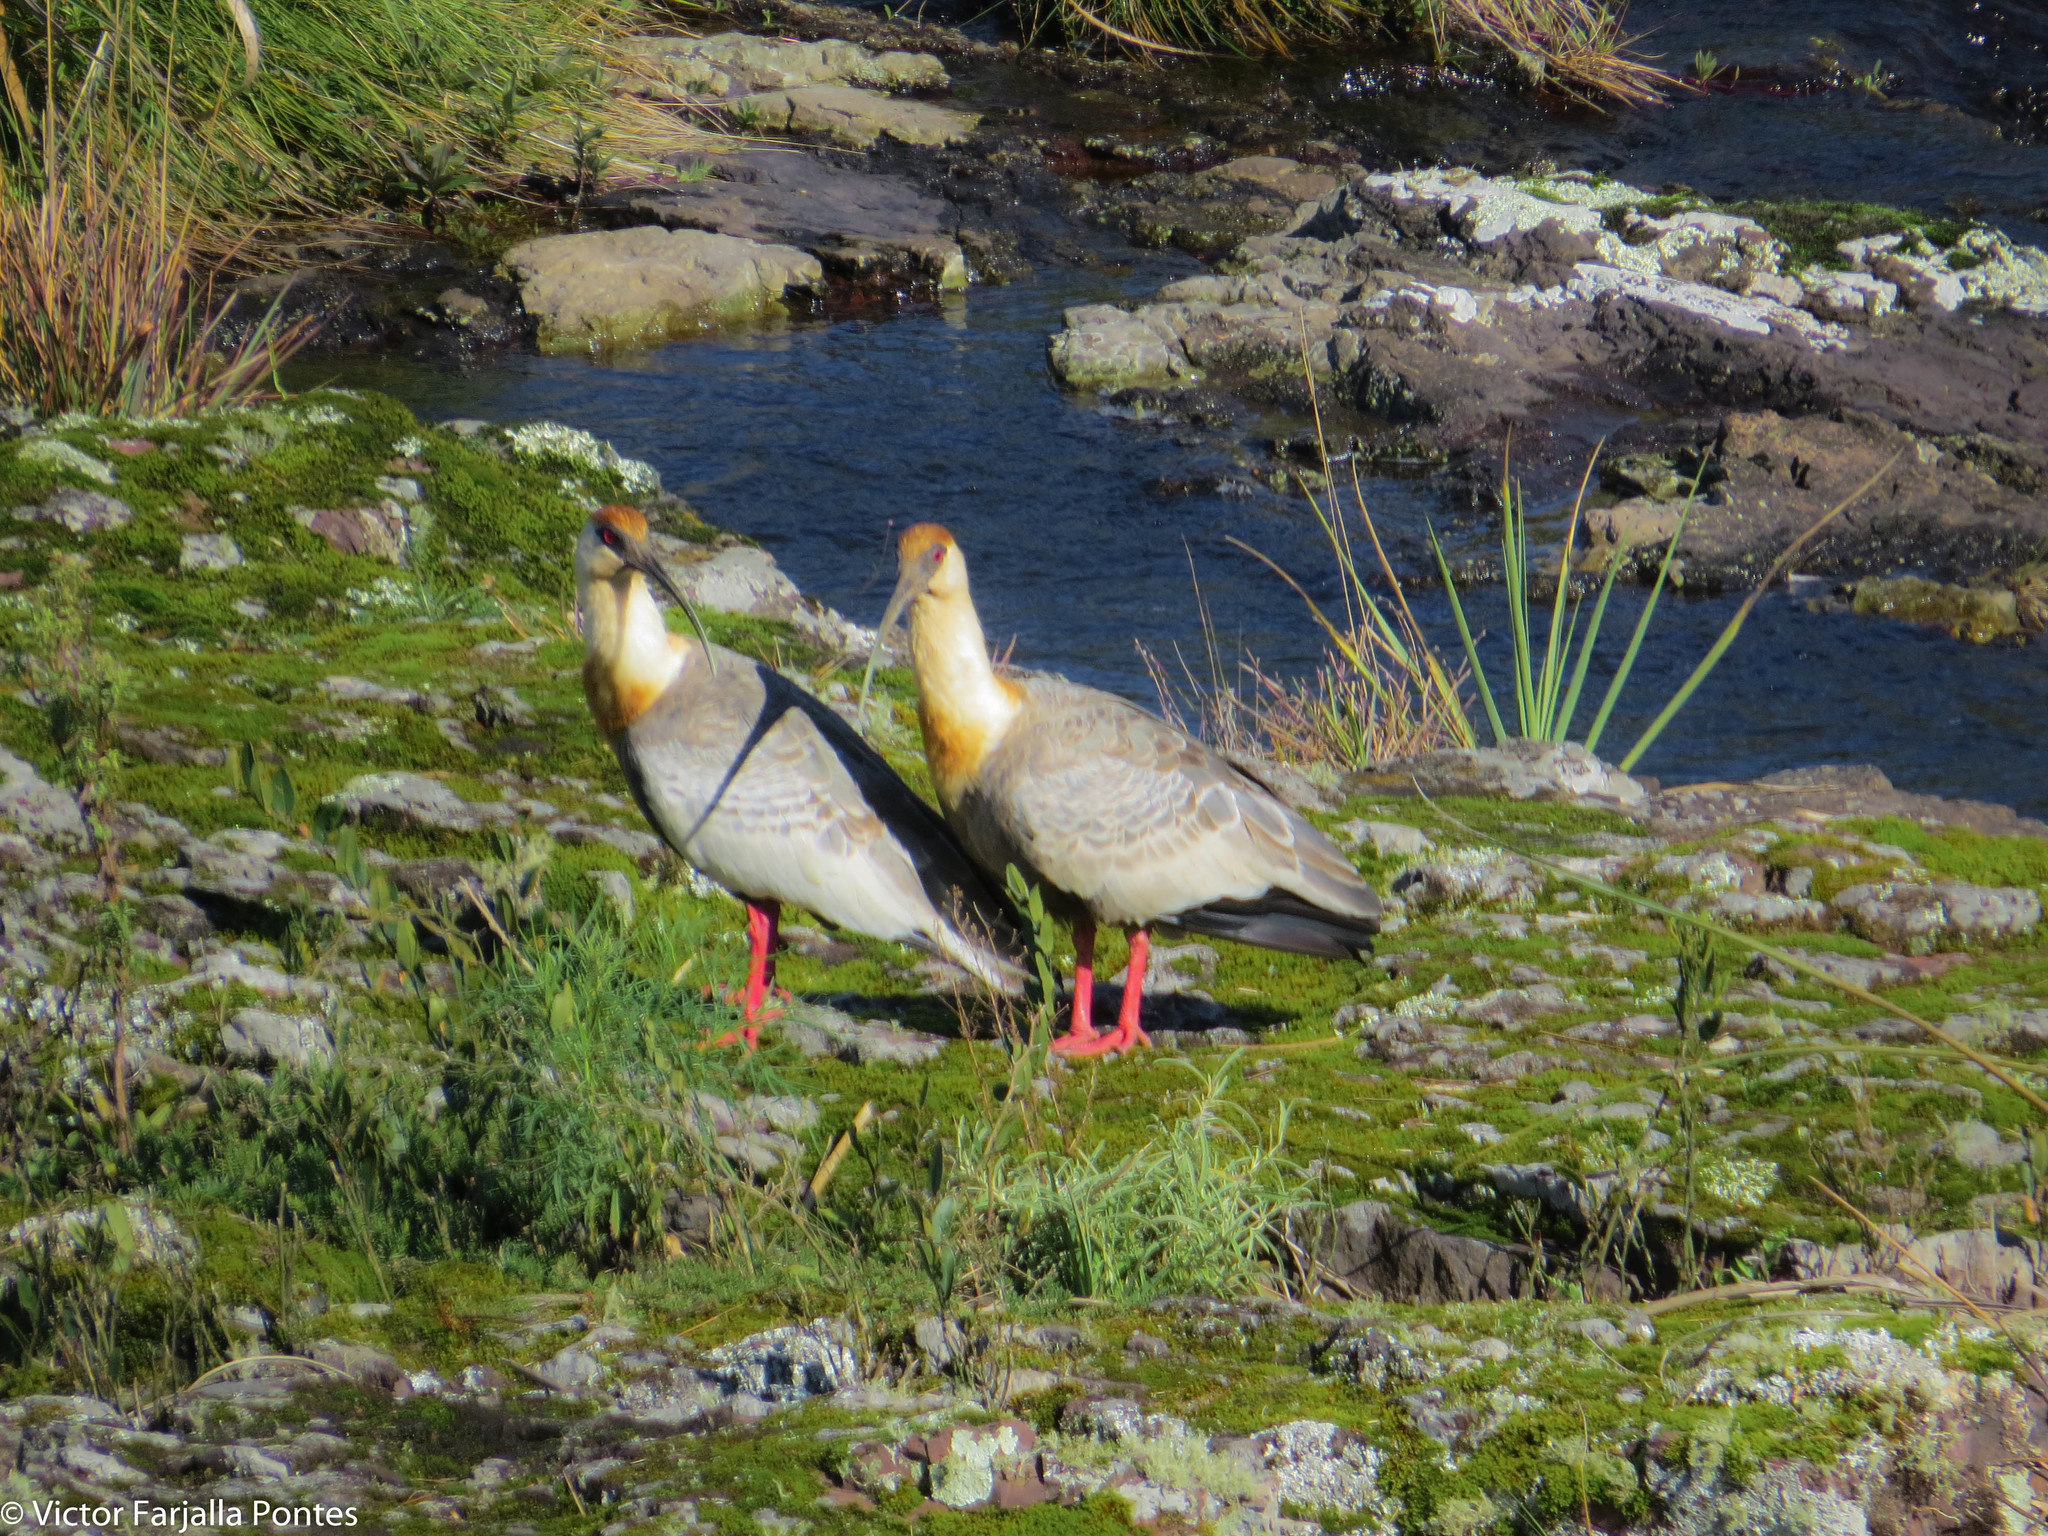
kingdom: Animalia
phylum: Chordata
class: Aves
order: Pelecaniformes
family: Threskiornithidae
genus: Theristicus
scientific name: Theristicus caudatus
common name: Buff-necked ibis
